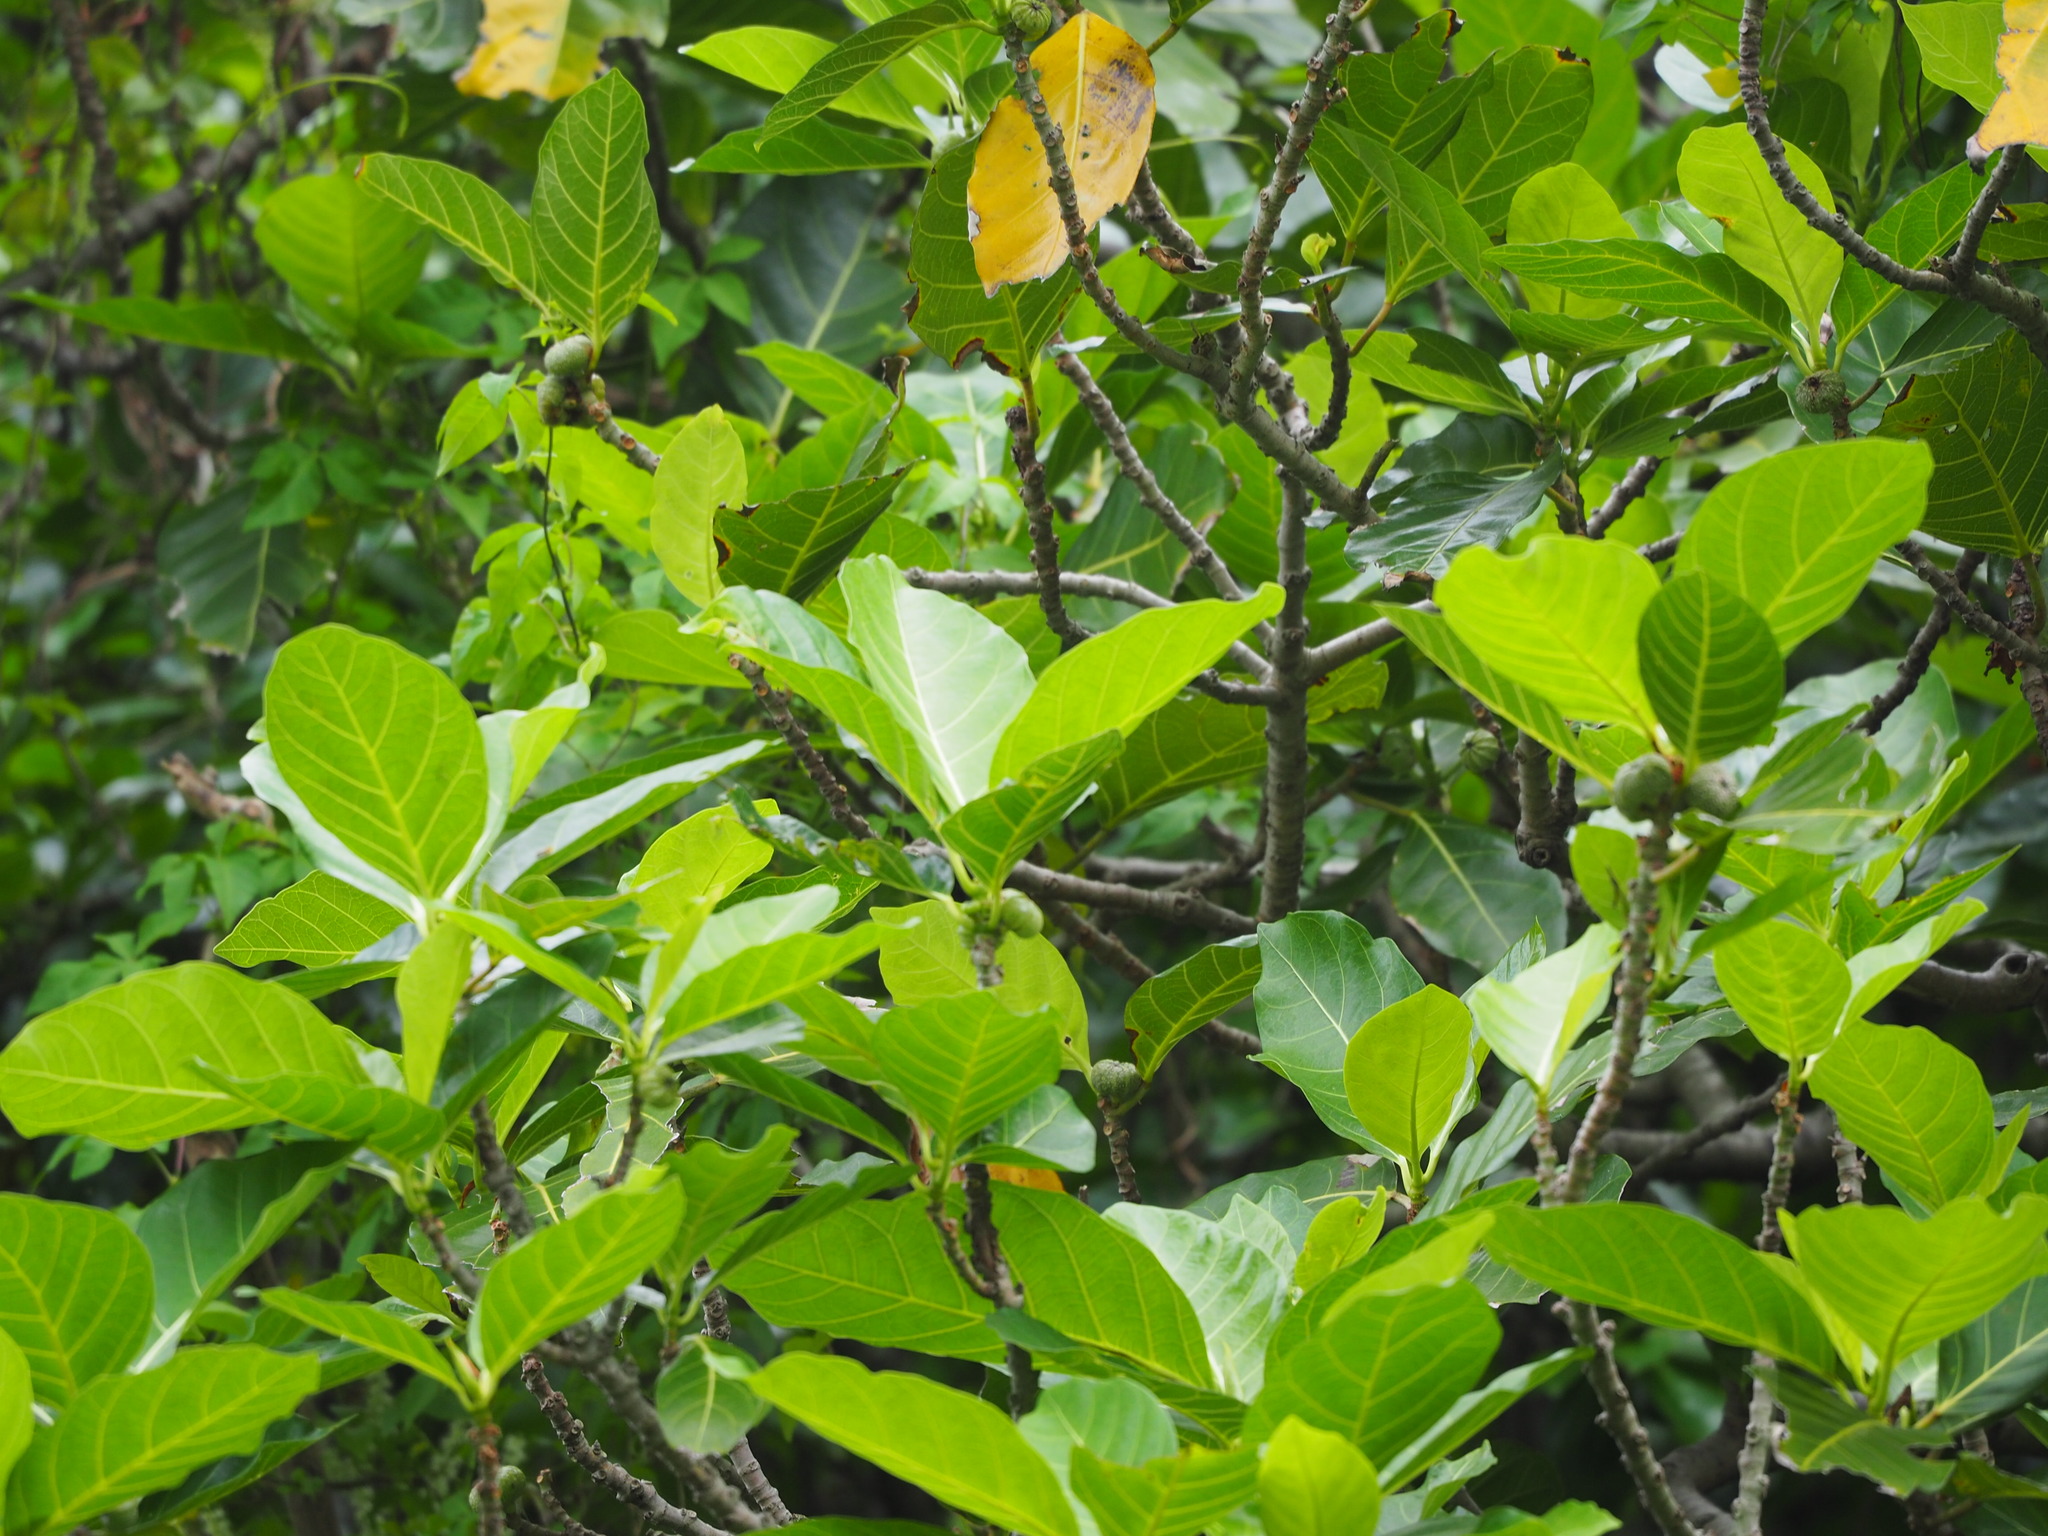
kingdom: Plantae
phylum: Tracheophyta
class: Magnoliopsida
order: Rosales
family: Moraceae
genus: Ficus
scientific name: Ficus septica
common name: Septic fig
